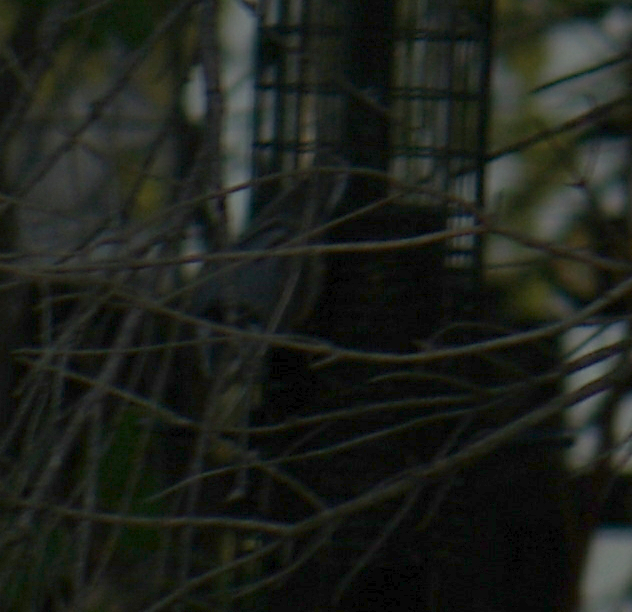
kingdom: Animalia
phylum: Chordata
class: Aves
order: Passeriformes
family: Sittidae
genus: Sitta
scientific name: Sitta carolinensis
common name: White-breasted nuthatch
